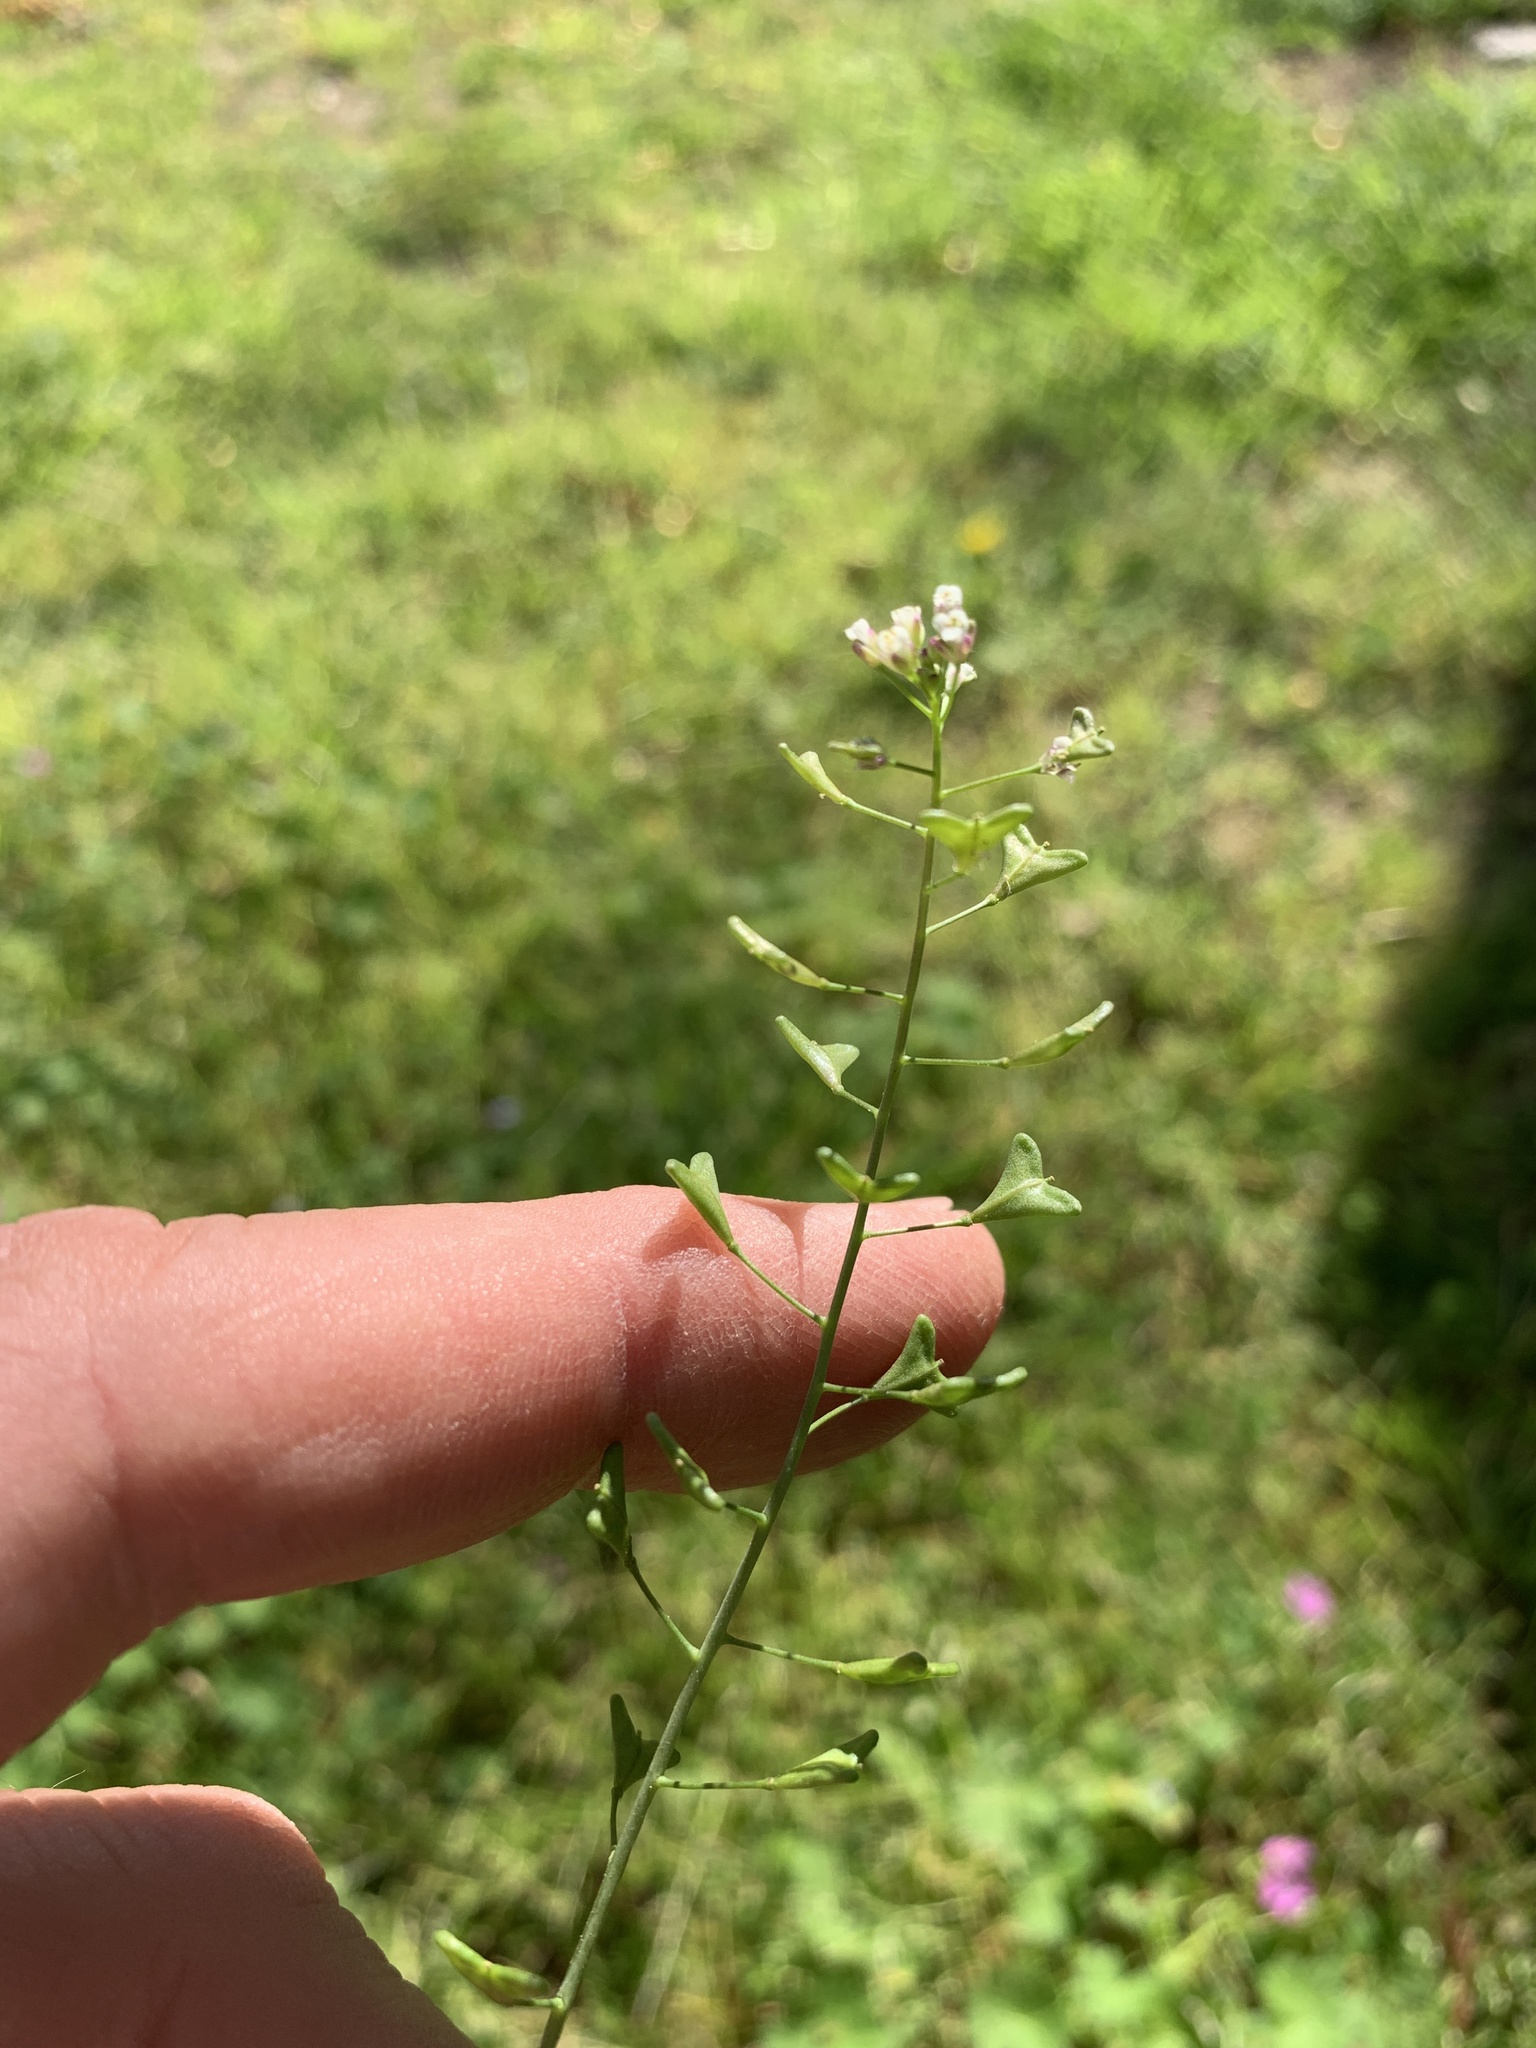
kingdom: Plantae
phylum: Tracheophyta
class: Magnoliopsida
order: Brassicales
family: Brassicaceae
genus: Capsella
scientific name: Capsella bursa-pastoris
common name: Shepherd's purse
